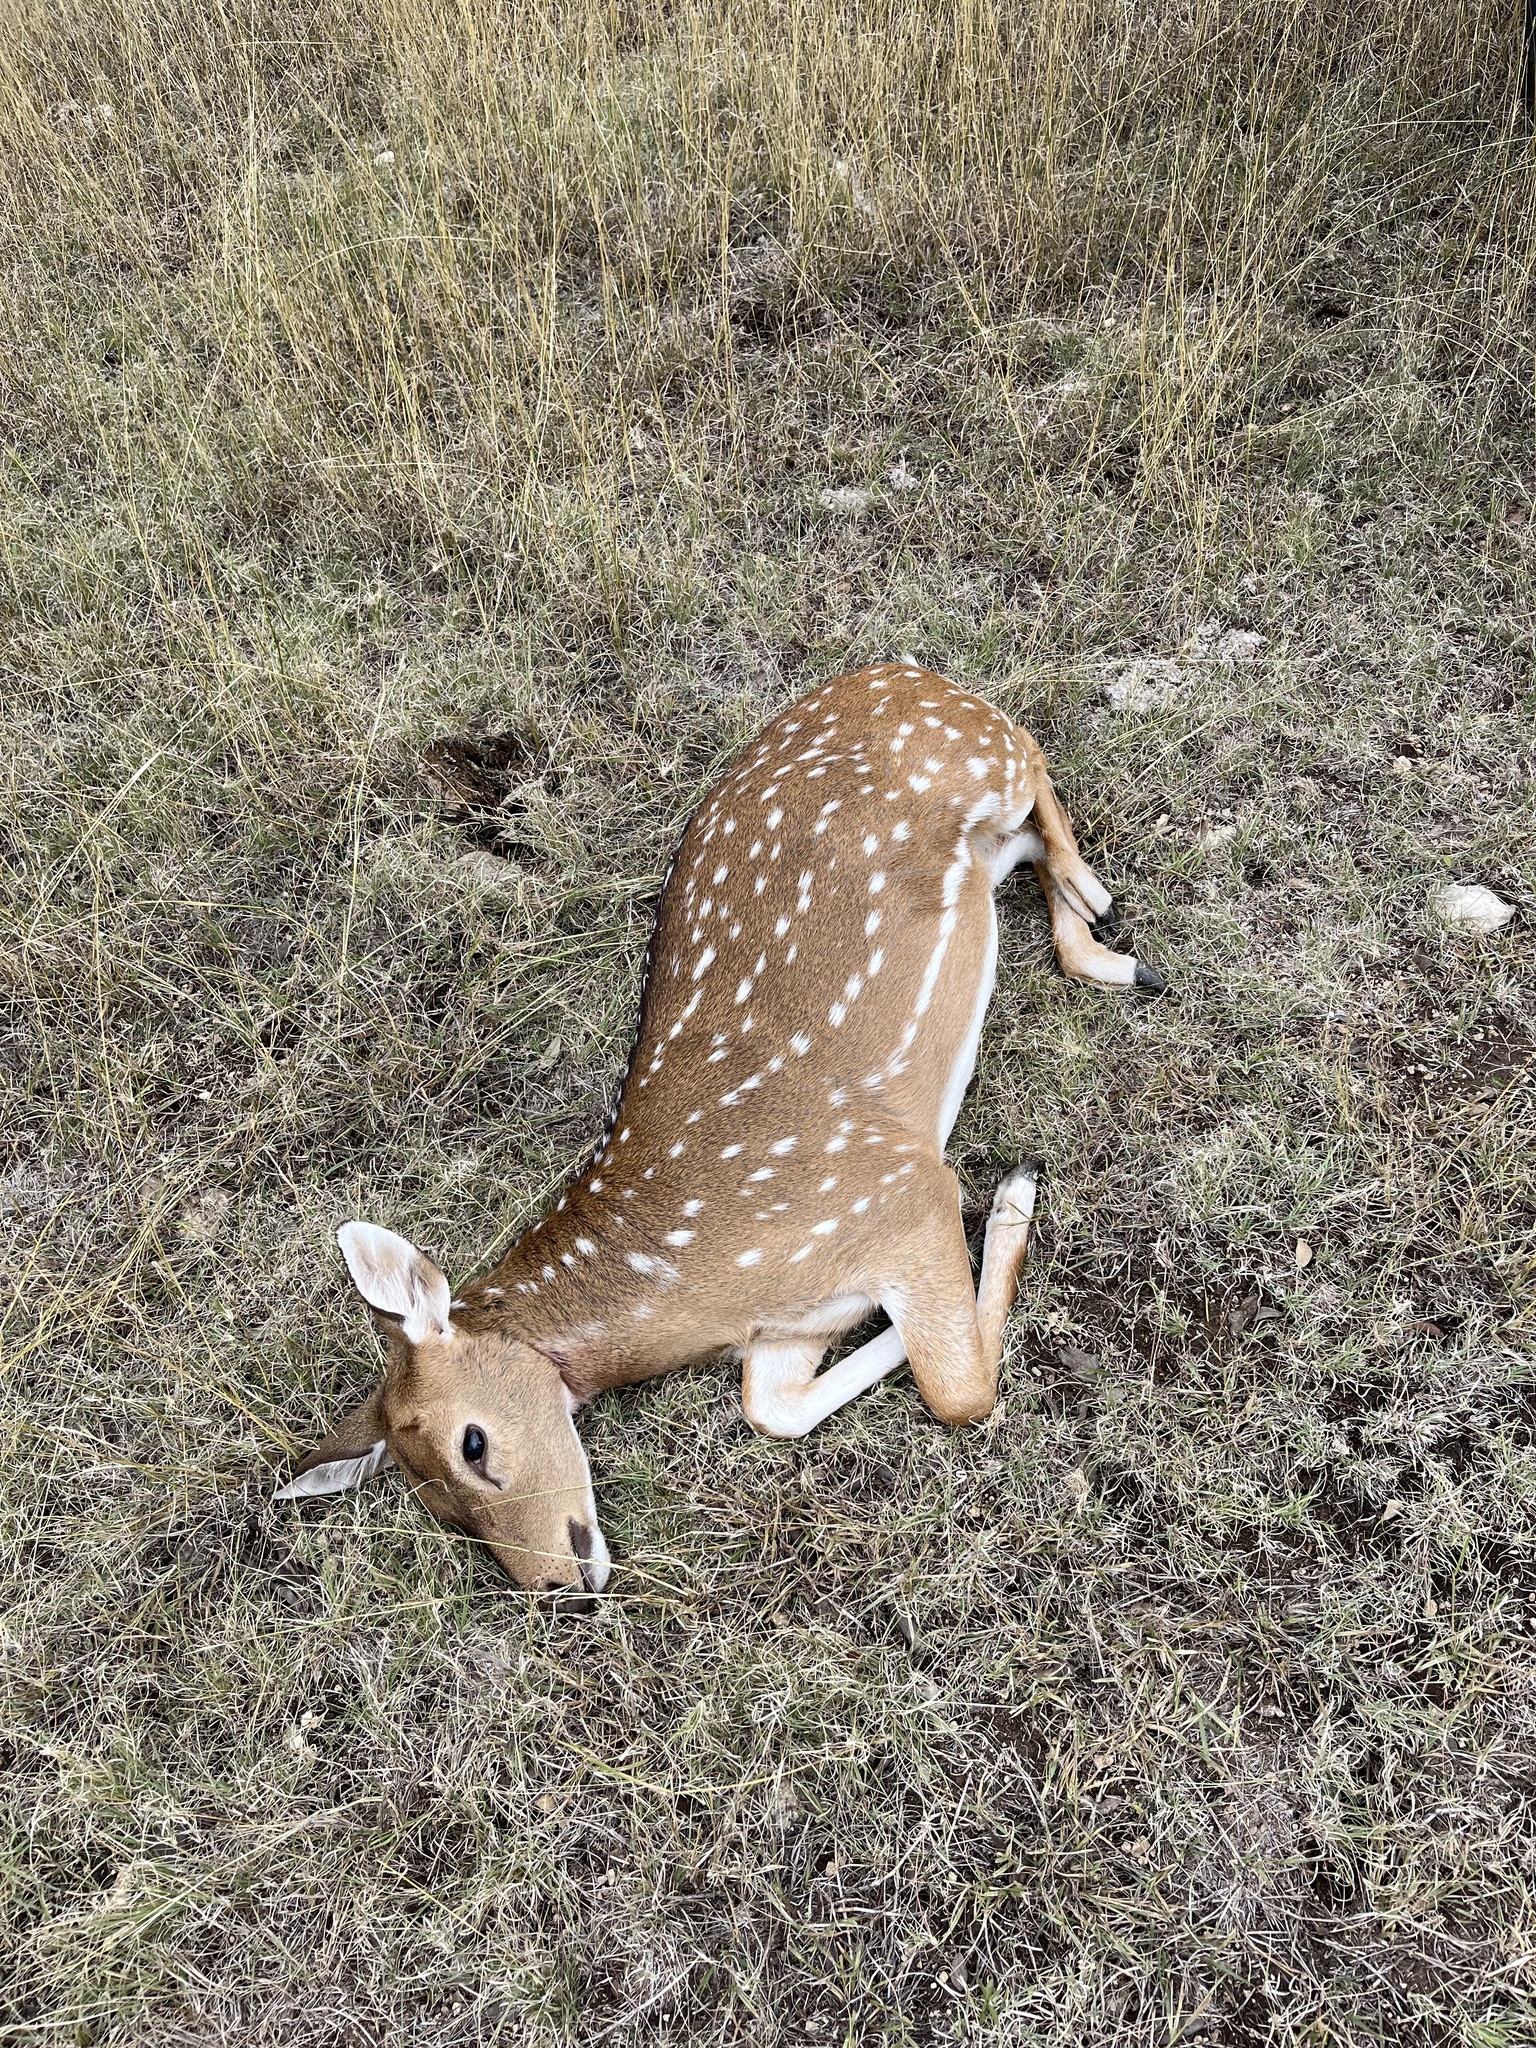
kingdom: Animalia
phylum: Chordata
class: Mammalia
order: Artiodactyla
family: Cervidae
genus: Axis
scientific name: Axis axis
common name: Chital
